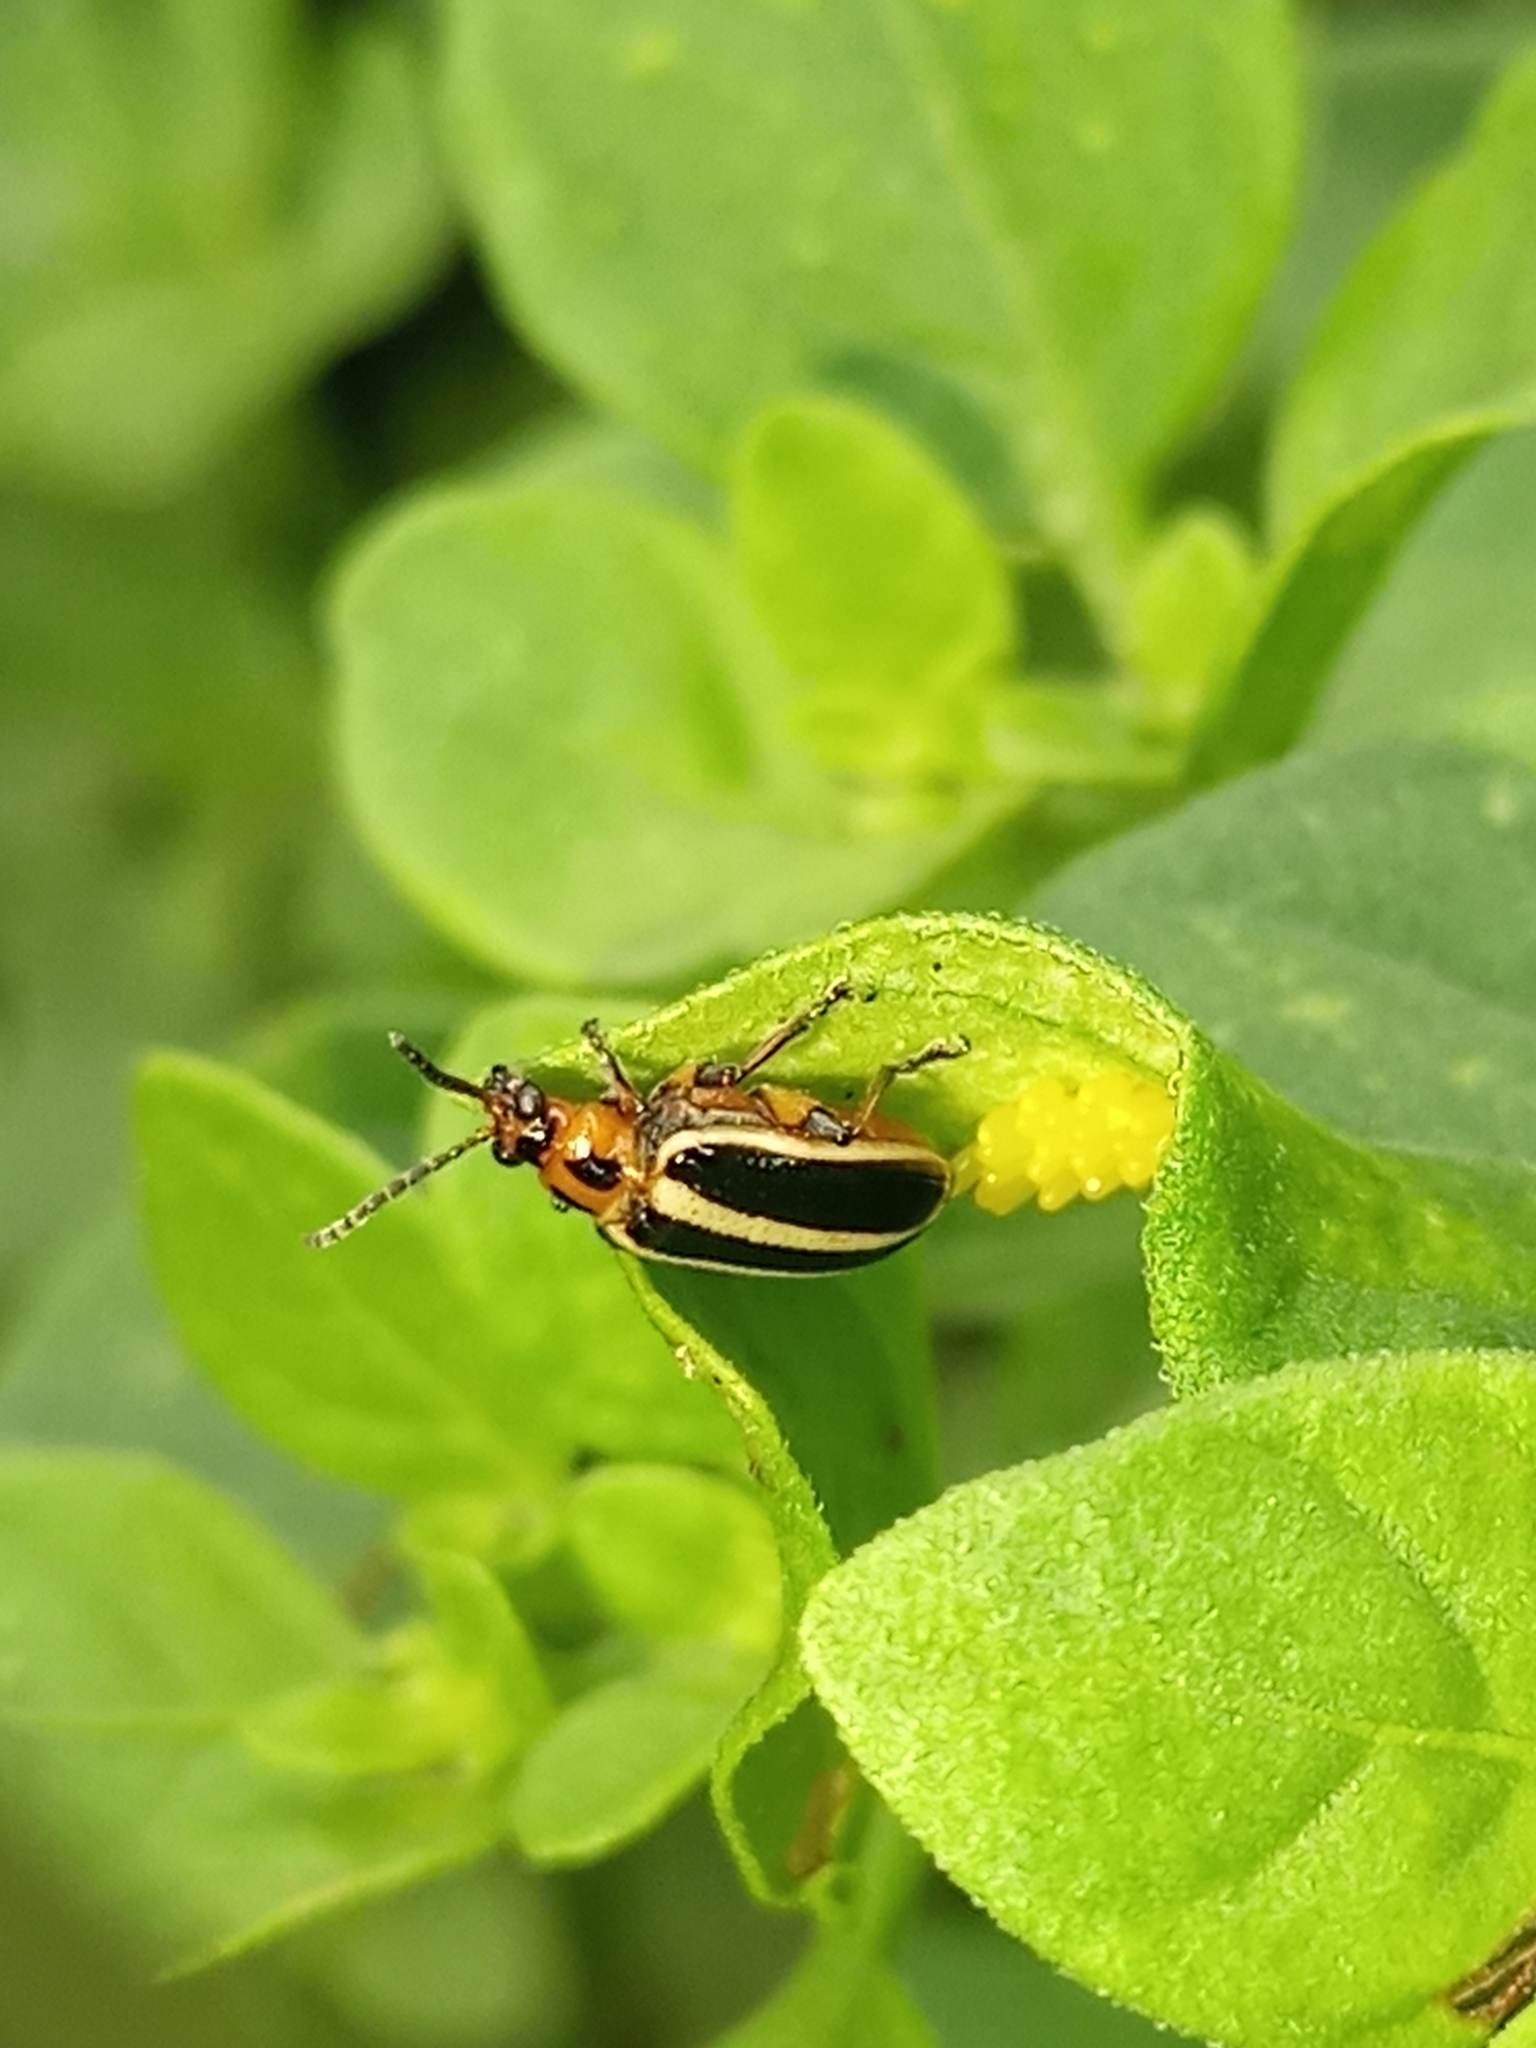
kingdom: Animalia
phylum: Arthropoda
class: Insecta
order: Coleoptera
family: Chrysomelidae
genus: Lema
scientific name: Lema bilineata
